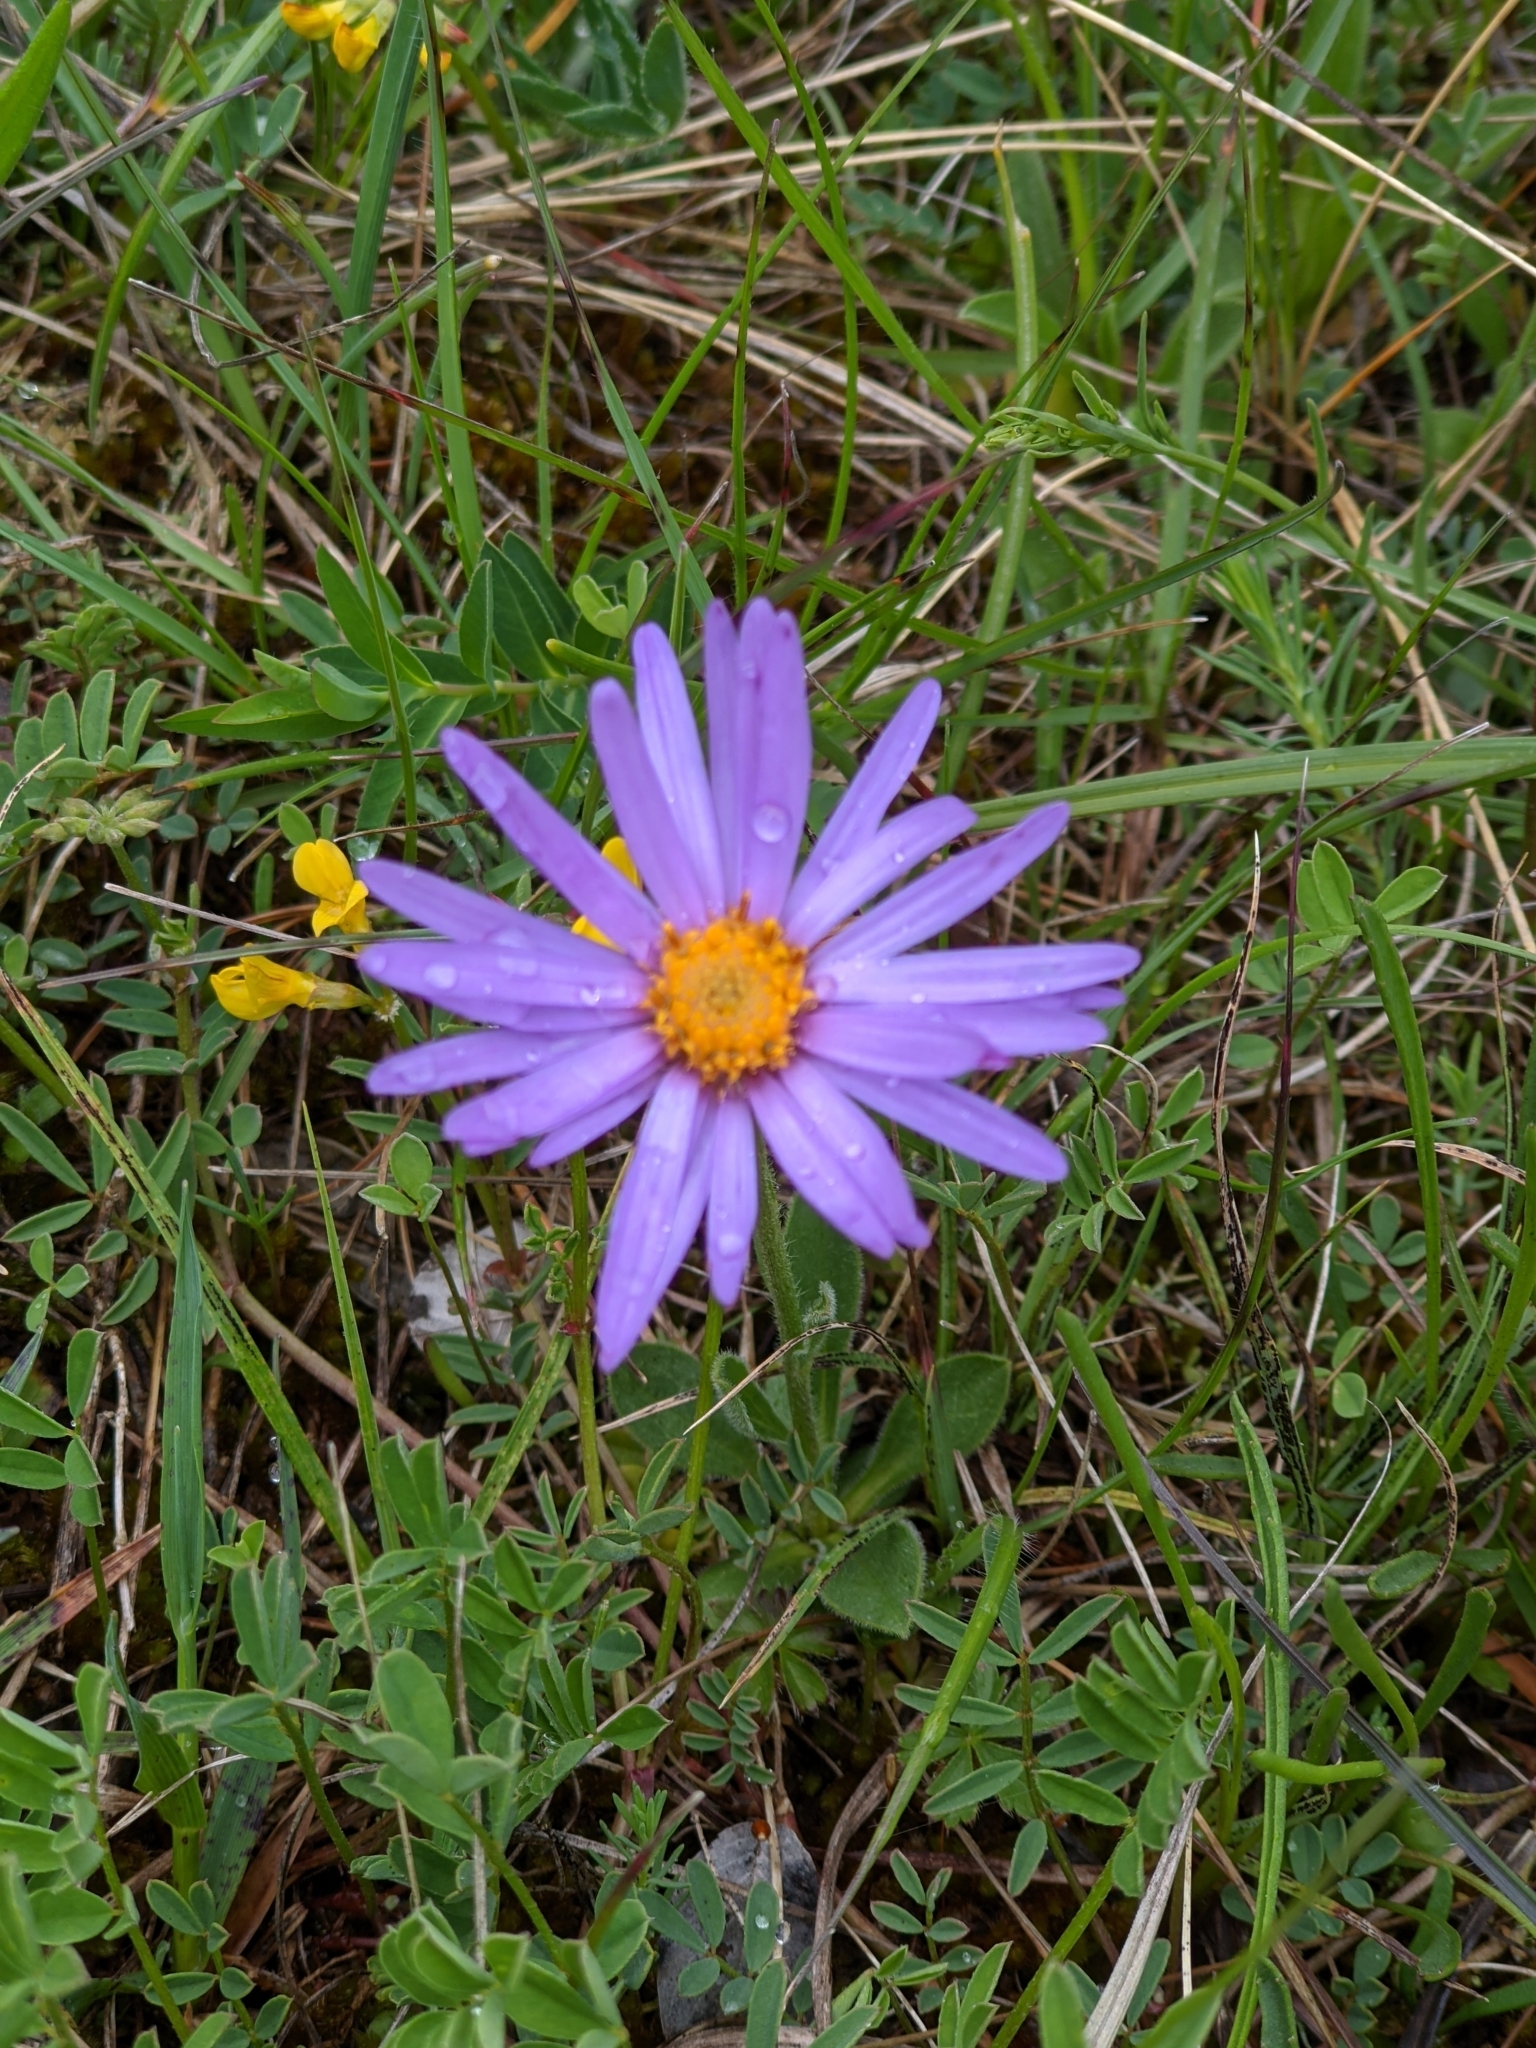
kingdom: Plantae
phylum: Tracheophyta
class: Magnoliopsida
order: Asterales
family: Asteraceae
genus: Aster
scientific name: Aster alpinus
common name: Alpine aster
